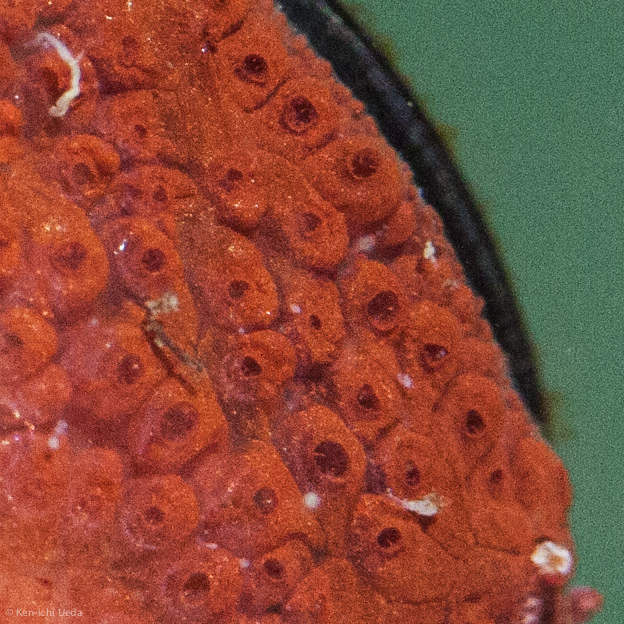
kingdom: Animalia
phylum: Chordata
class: Ascidiacea
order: Stolidobranchia
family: Styelidae
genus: Botrylloides
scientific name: Botrylloides violaceus
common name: Colonial sea squirt
